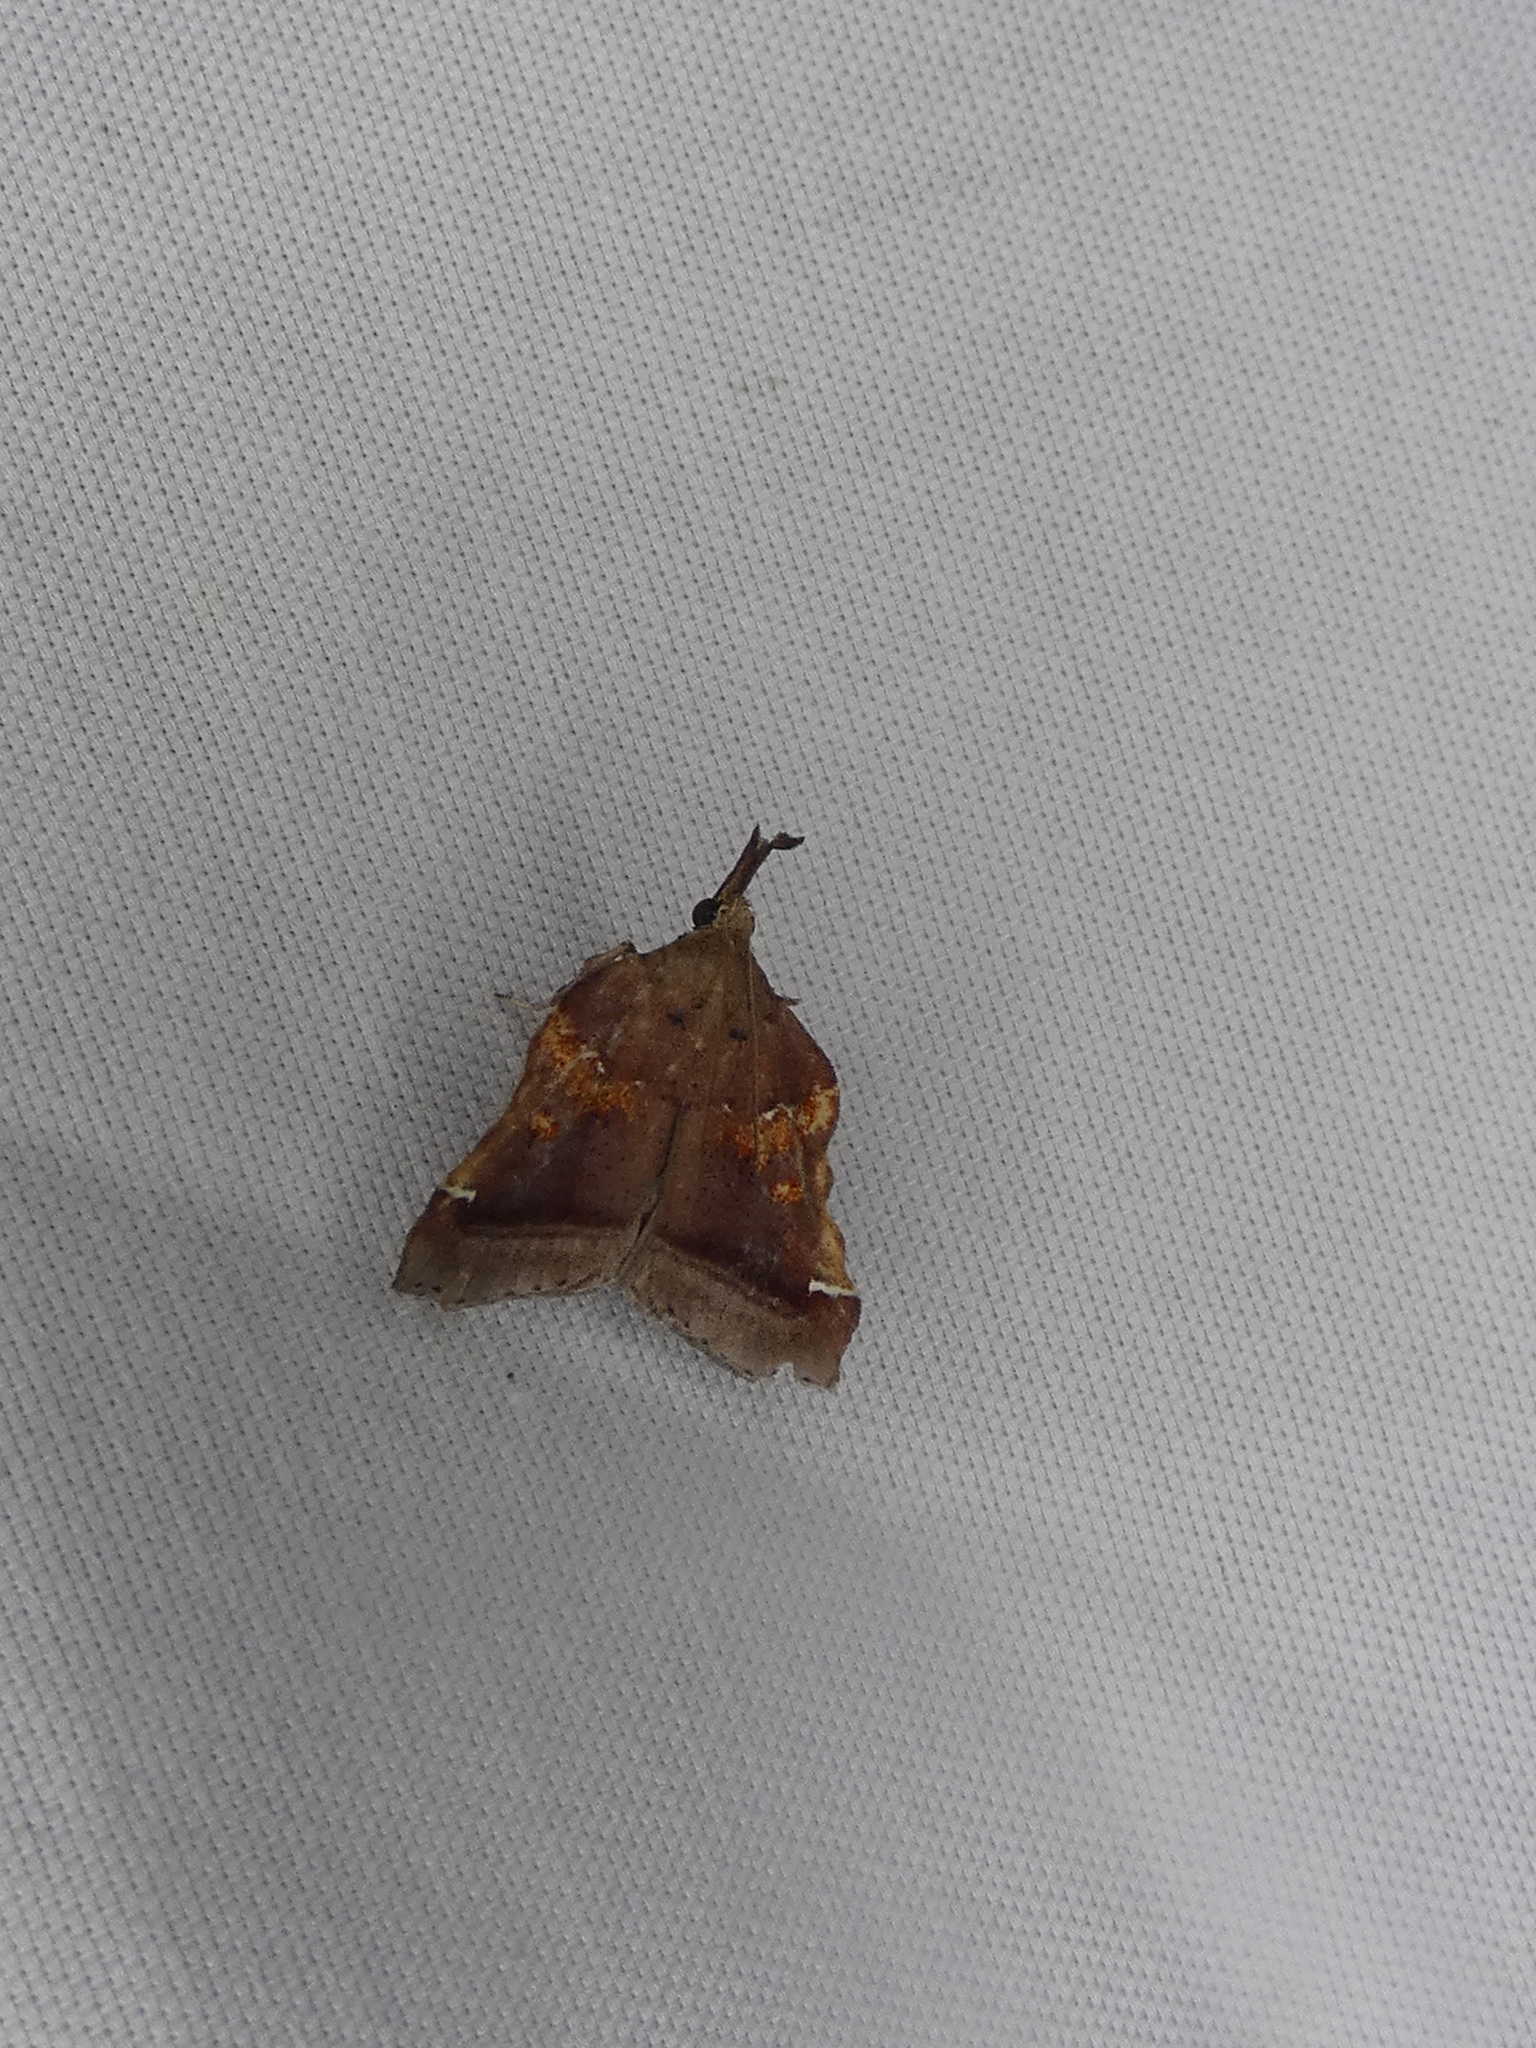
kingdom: Animalia
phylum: Arthropoda
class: Insecta
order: Lepidoptera
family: Pyralidae
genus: Clydonopteron
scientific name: Clydonopteron sacculana
